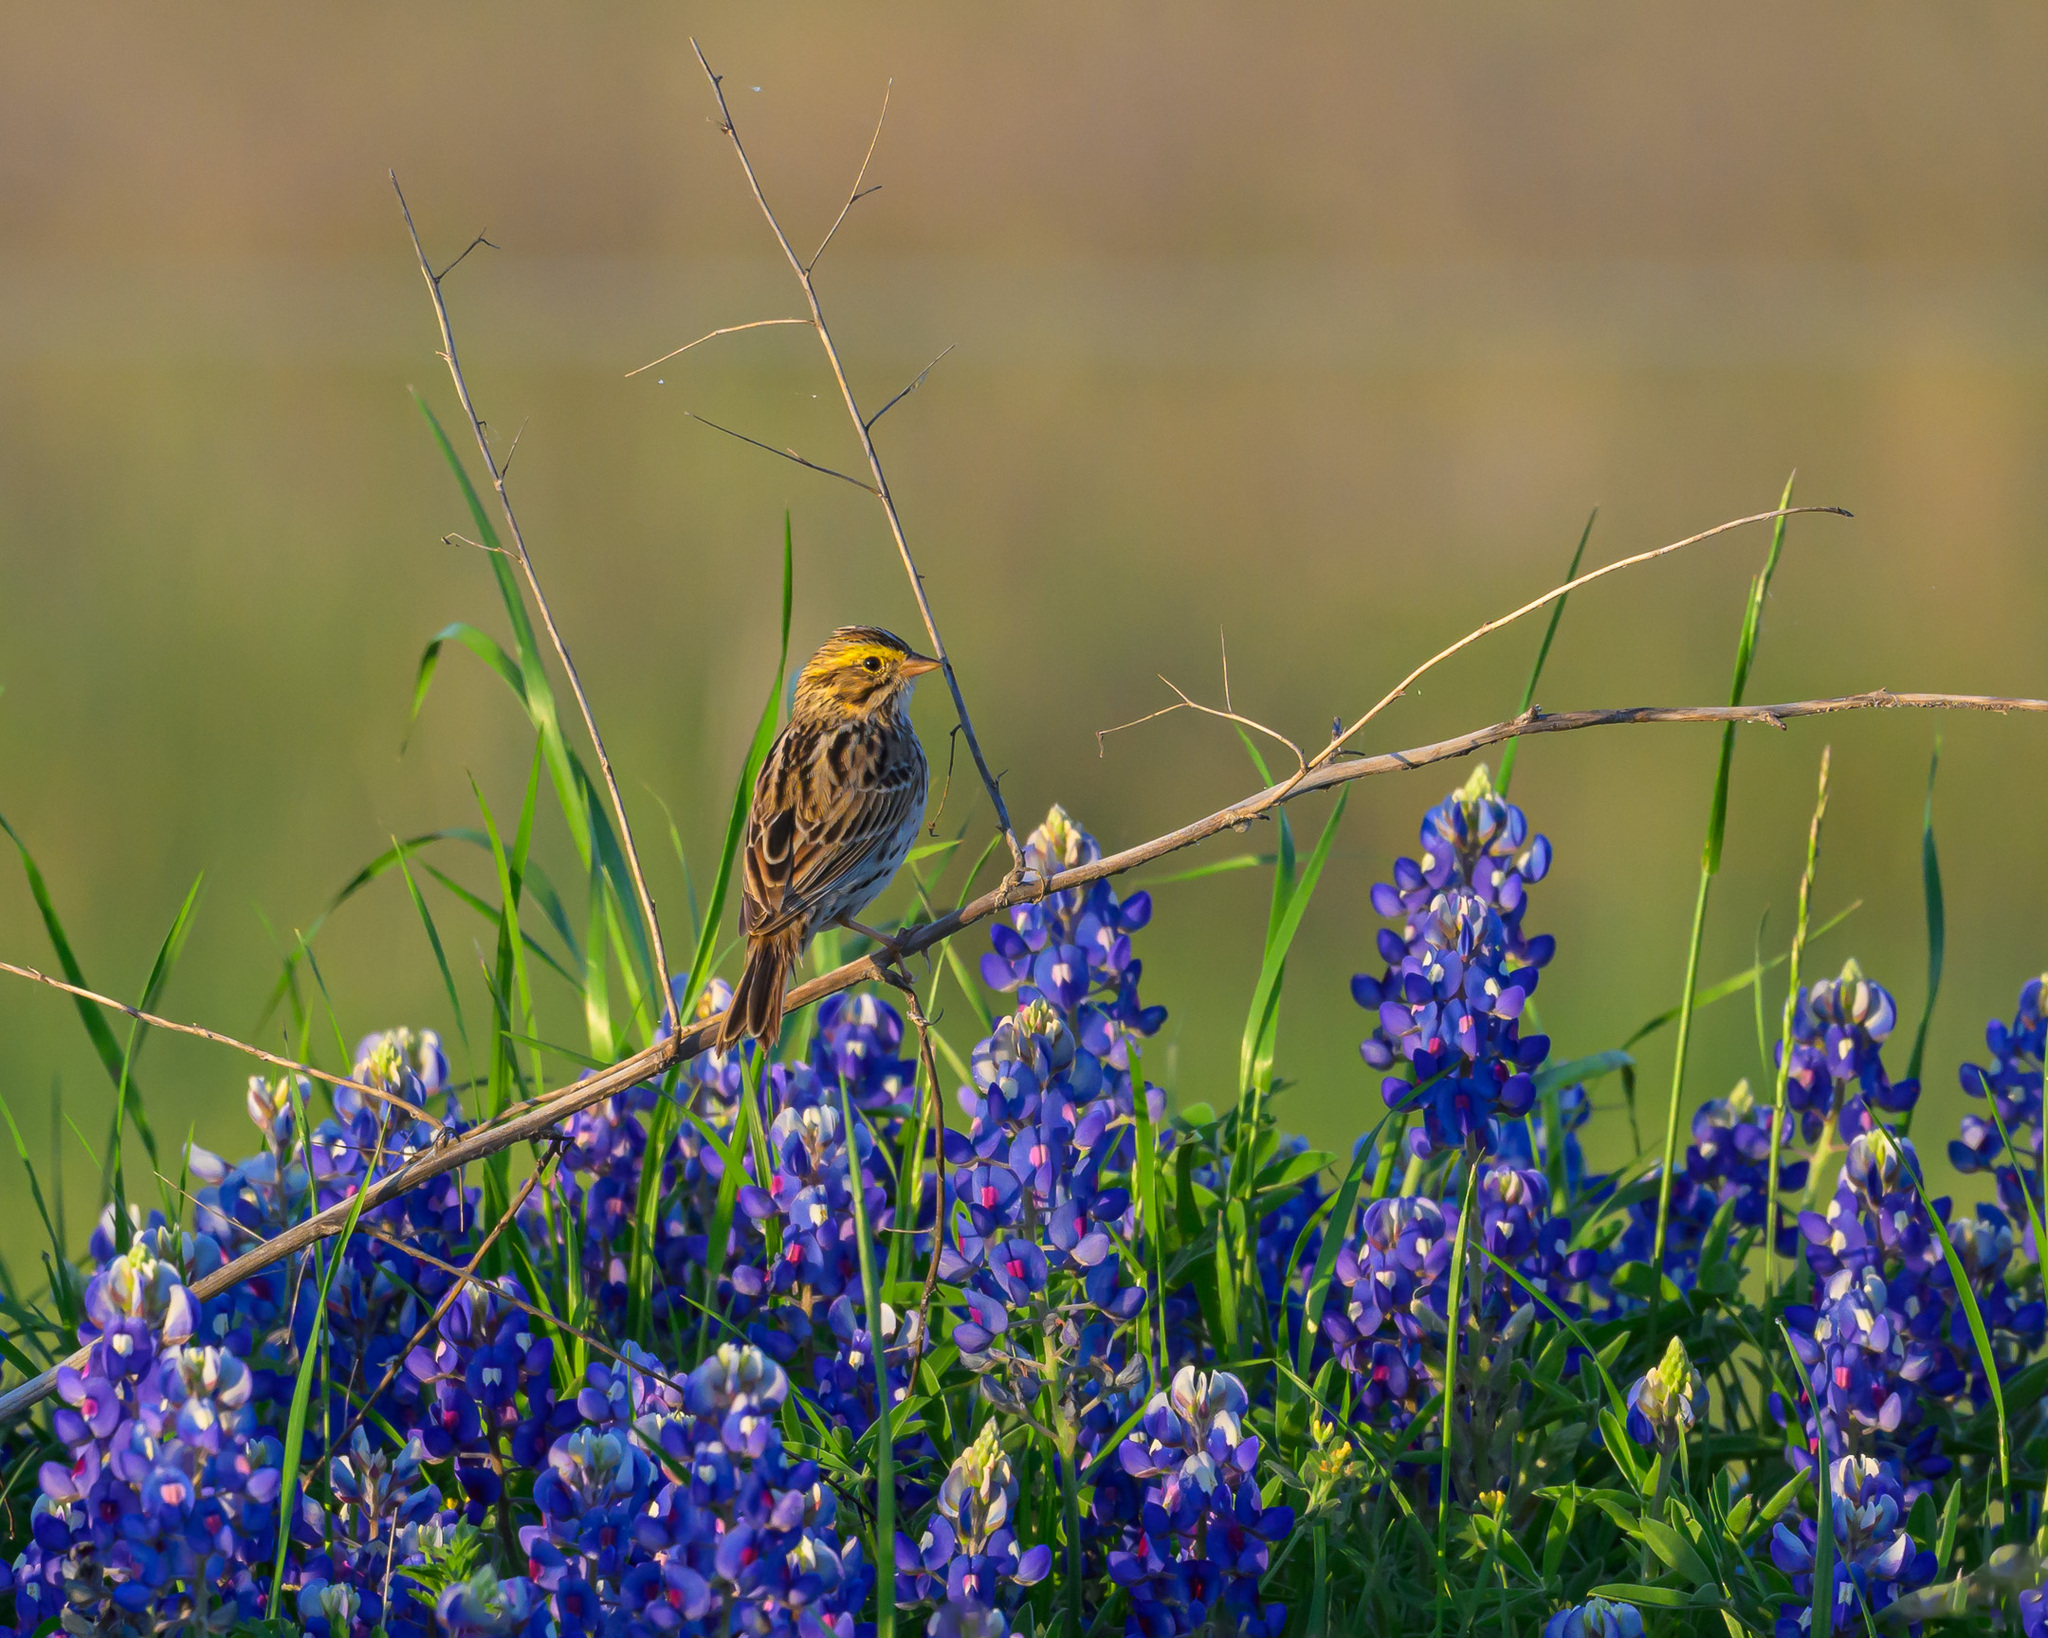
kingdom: Animalia
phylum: Chordata
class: Aves
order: Passeriformes
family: Passerellidae
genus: Passerculus
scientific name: Passerculus sandwichensis
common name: Savannah sparrow
